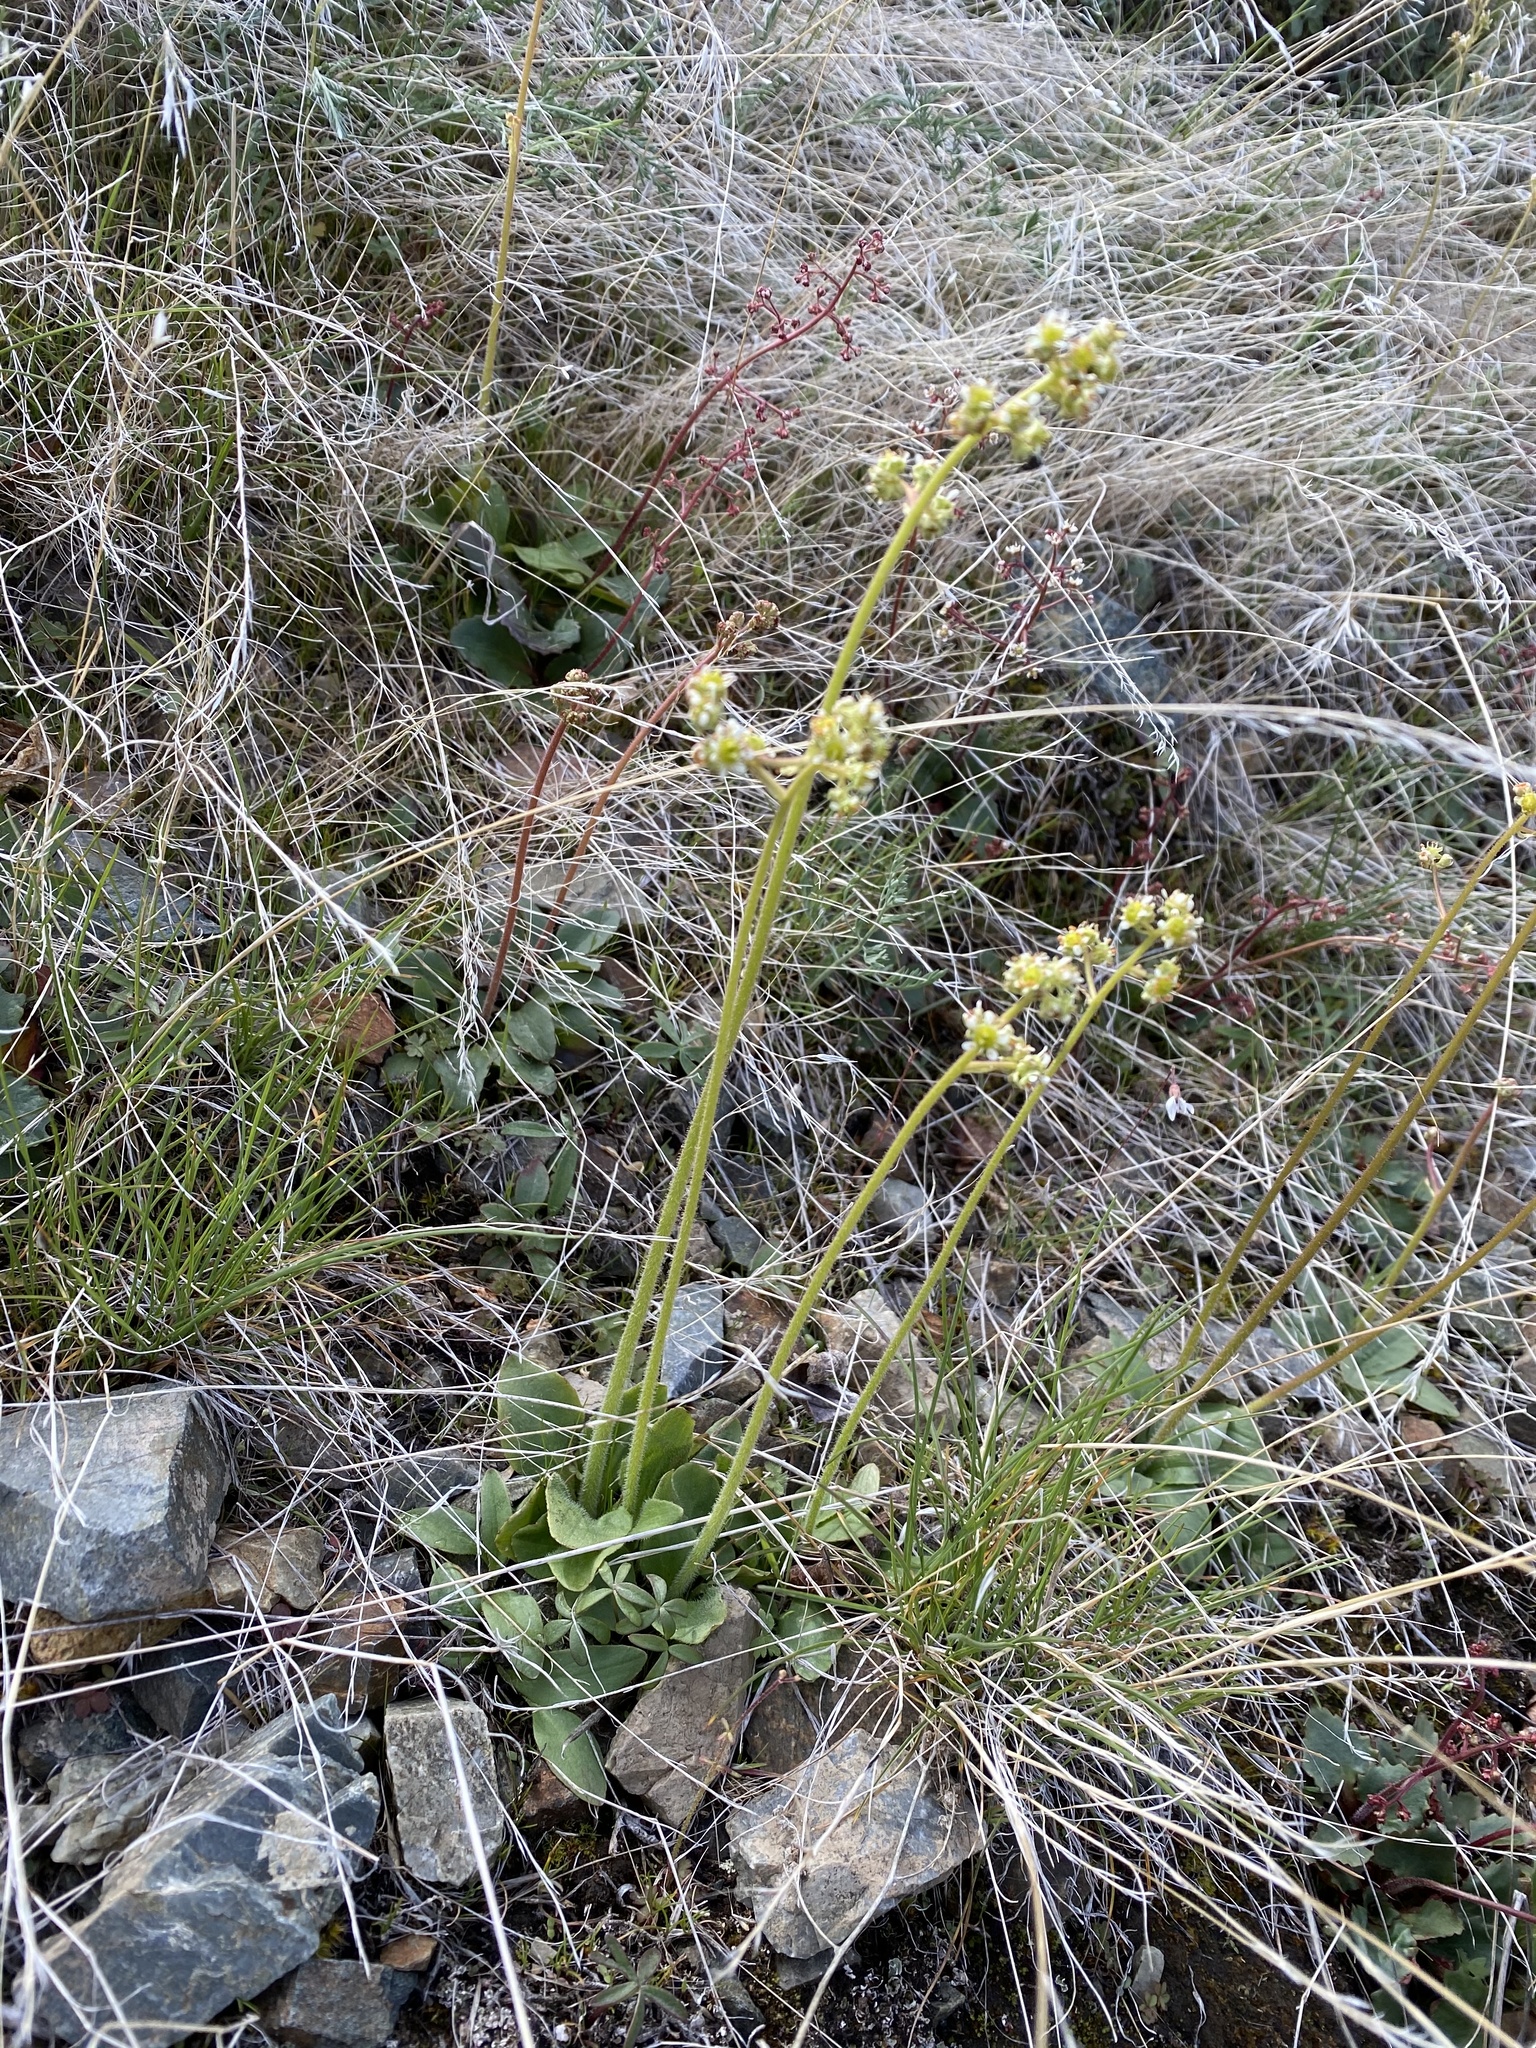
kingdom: Plantae
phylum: Tracheophyta
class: Magnoliopsida
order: Saxifragales
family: Saxifragaceae
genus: Micranthes
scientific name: Micranthes oregana
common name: Bog saxifrage
